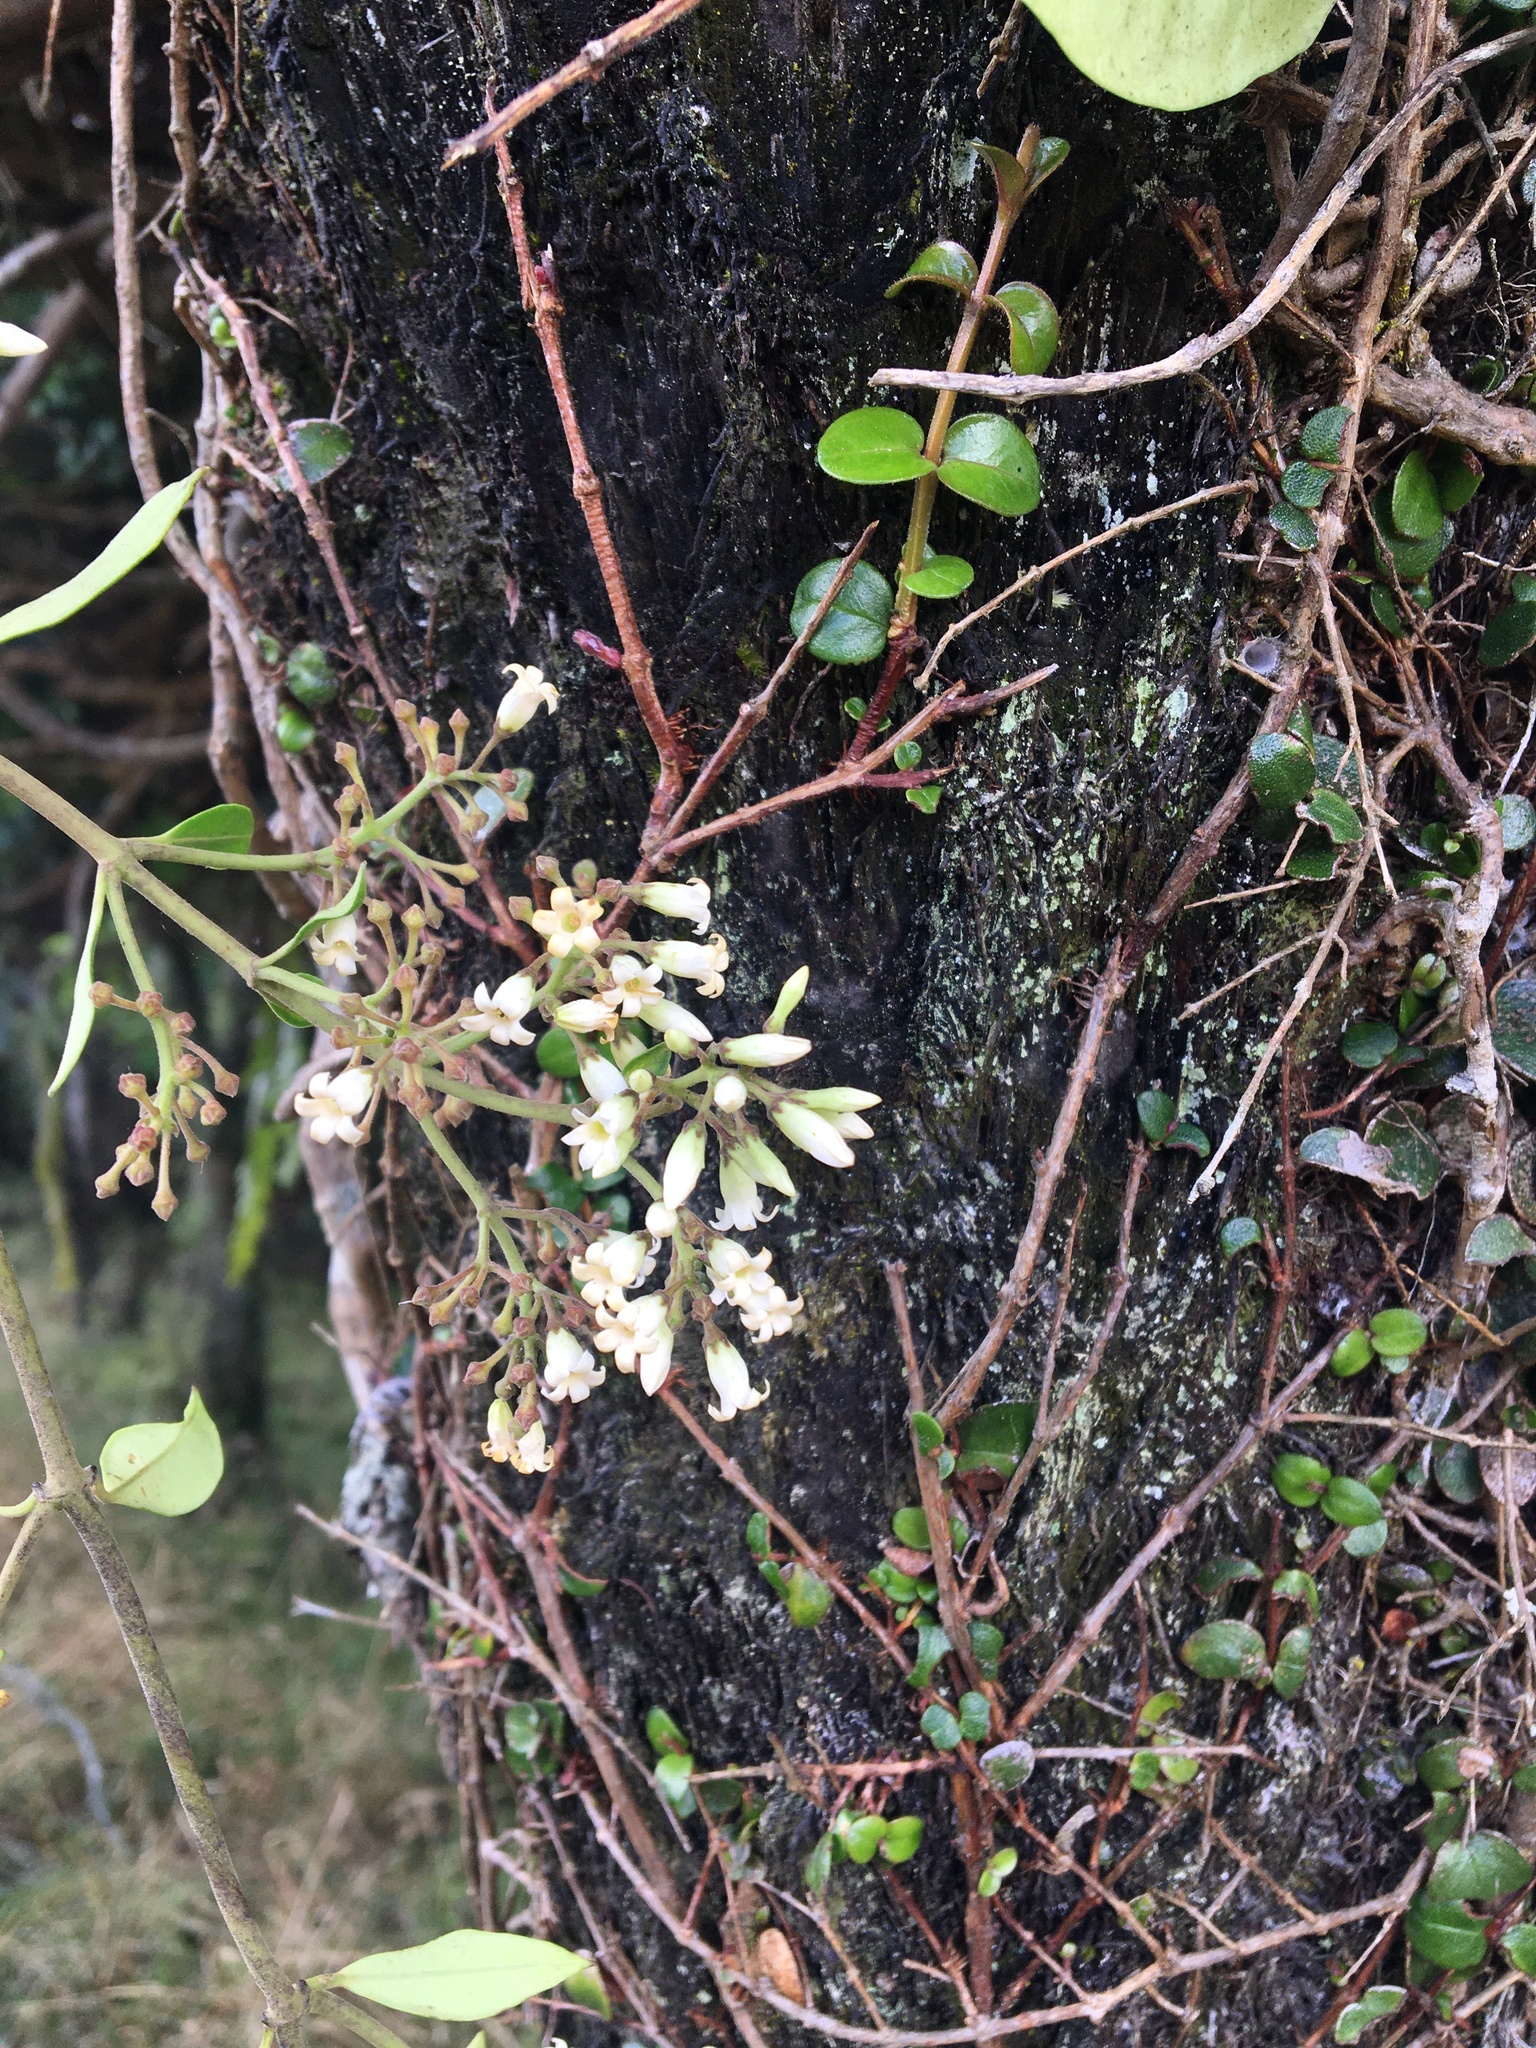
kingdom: Plantae
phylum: Tracheophyta
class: Magnoliopsida
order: Gentianales
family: Apocynaceae
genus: Parsonsia
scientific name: Parsonsia heterophylla
